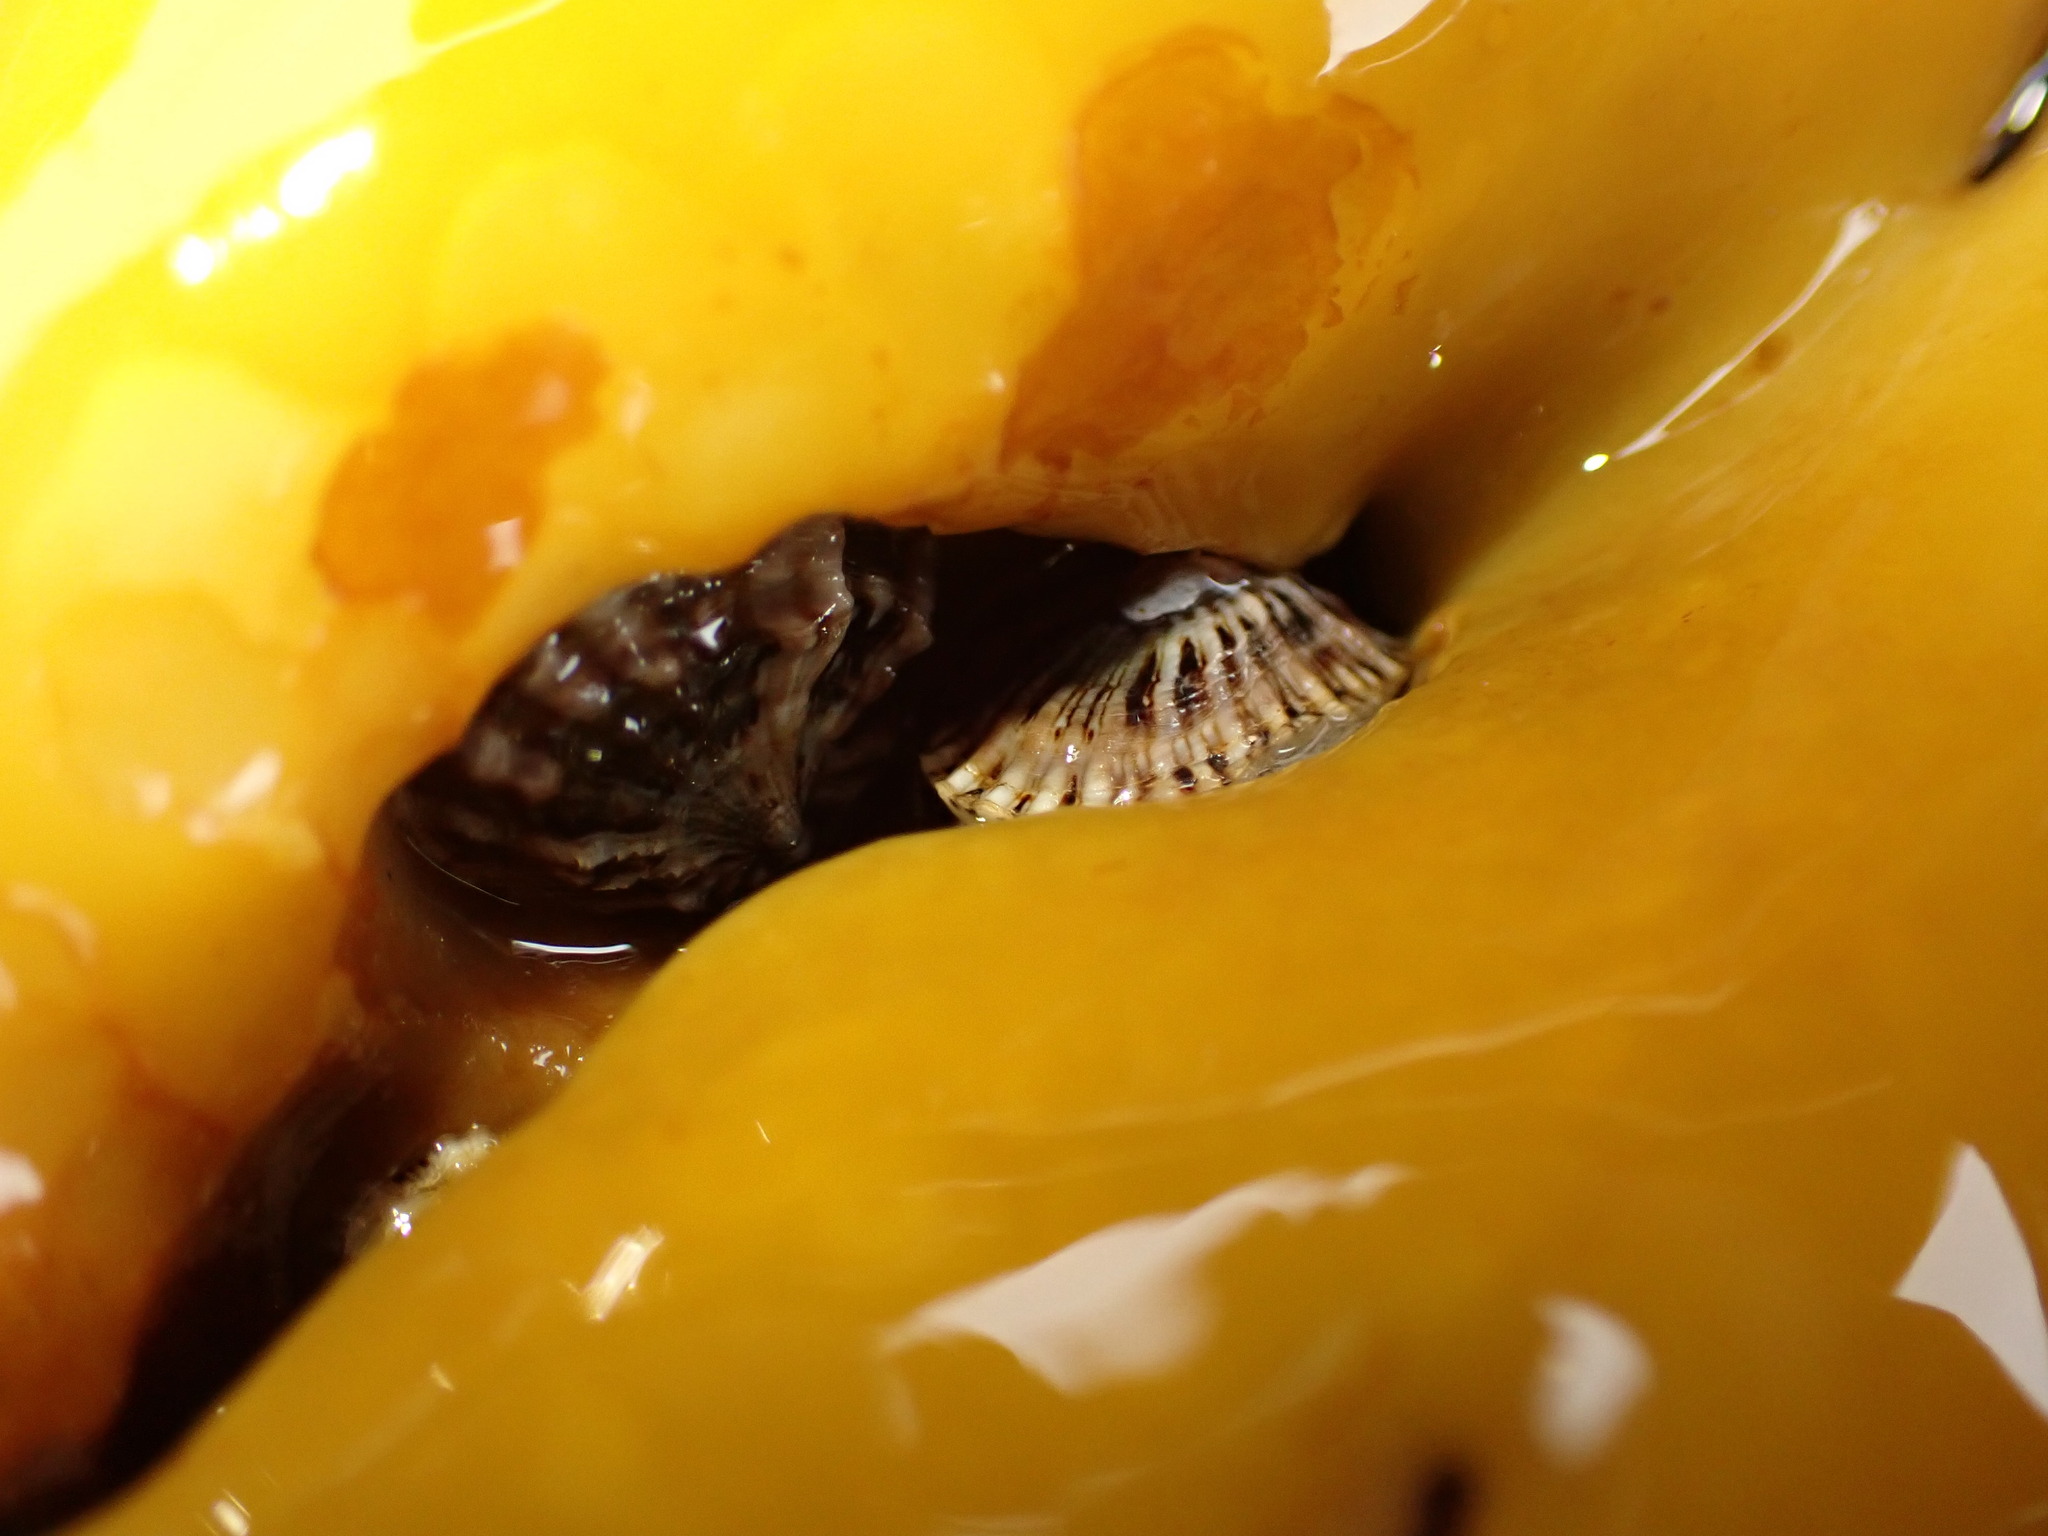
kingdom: Animalia
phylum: Mollusca
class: Gastropoda
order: Siphonariida
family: Siphonariidae
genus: Siphonaria
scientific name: Siphonaria australis
